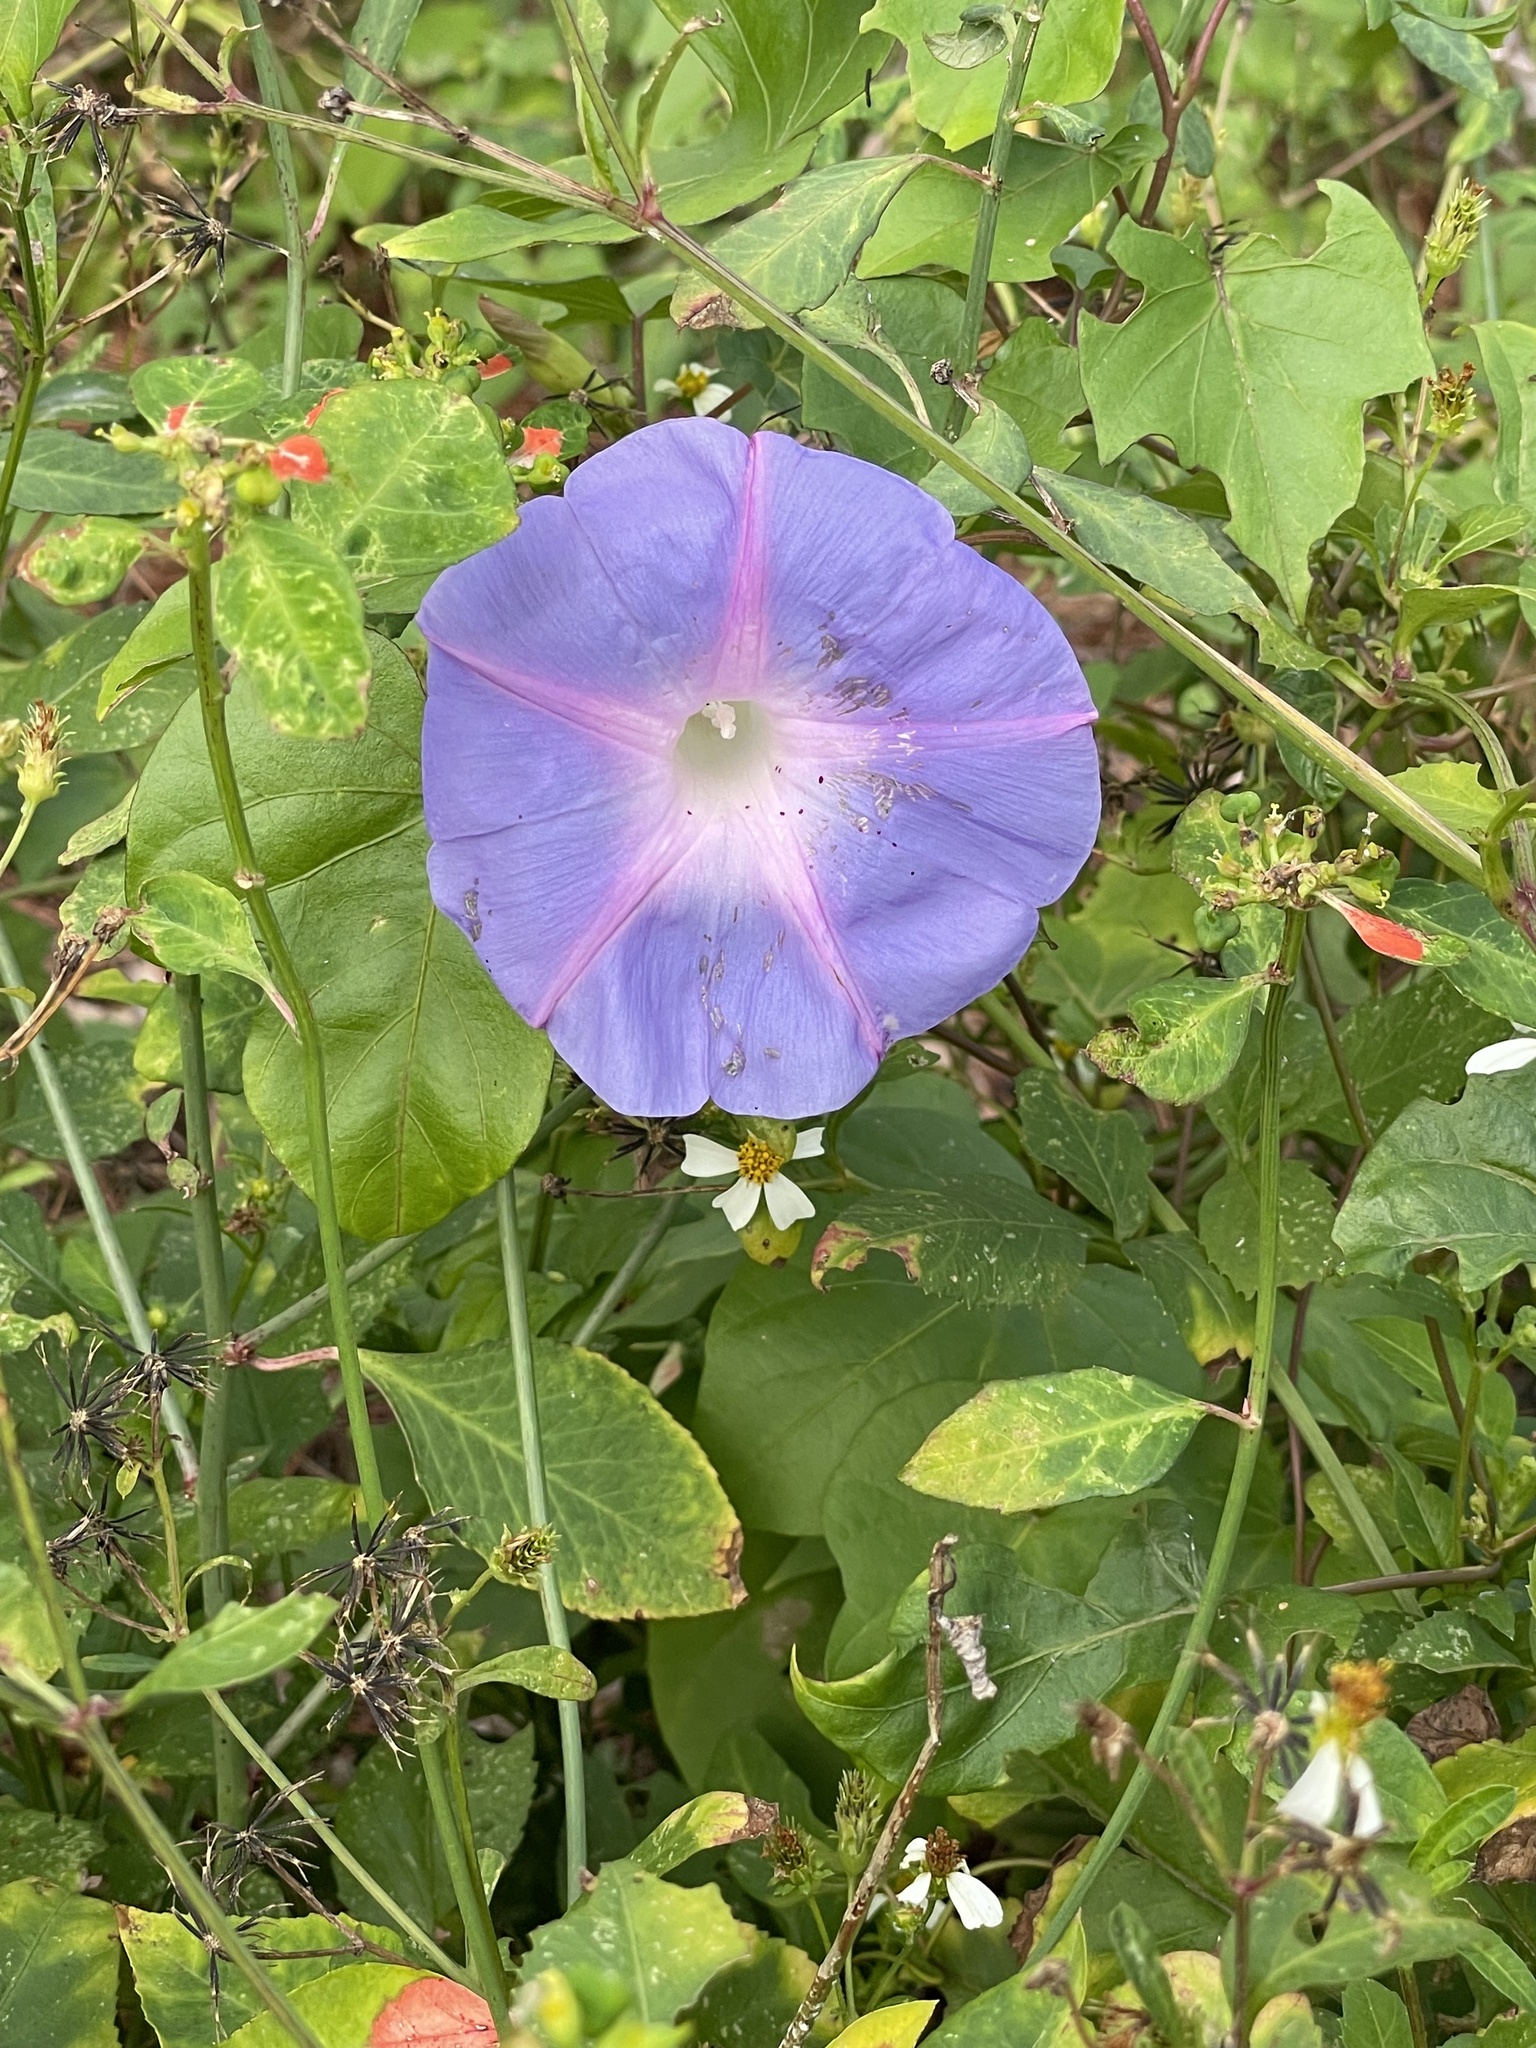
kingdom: Plantae
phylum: Tracheophyta
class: Magnoliopsida
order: Solanales
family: Convolvulaceae
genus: Ipomoea
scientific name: Ipomoea indica
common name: Blue dawnflower
